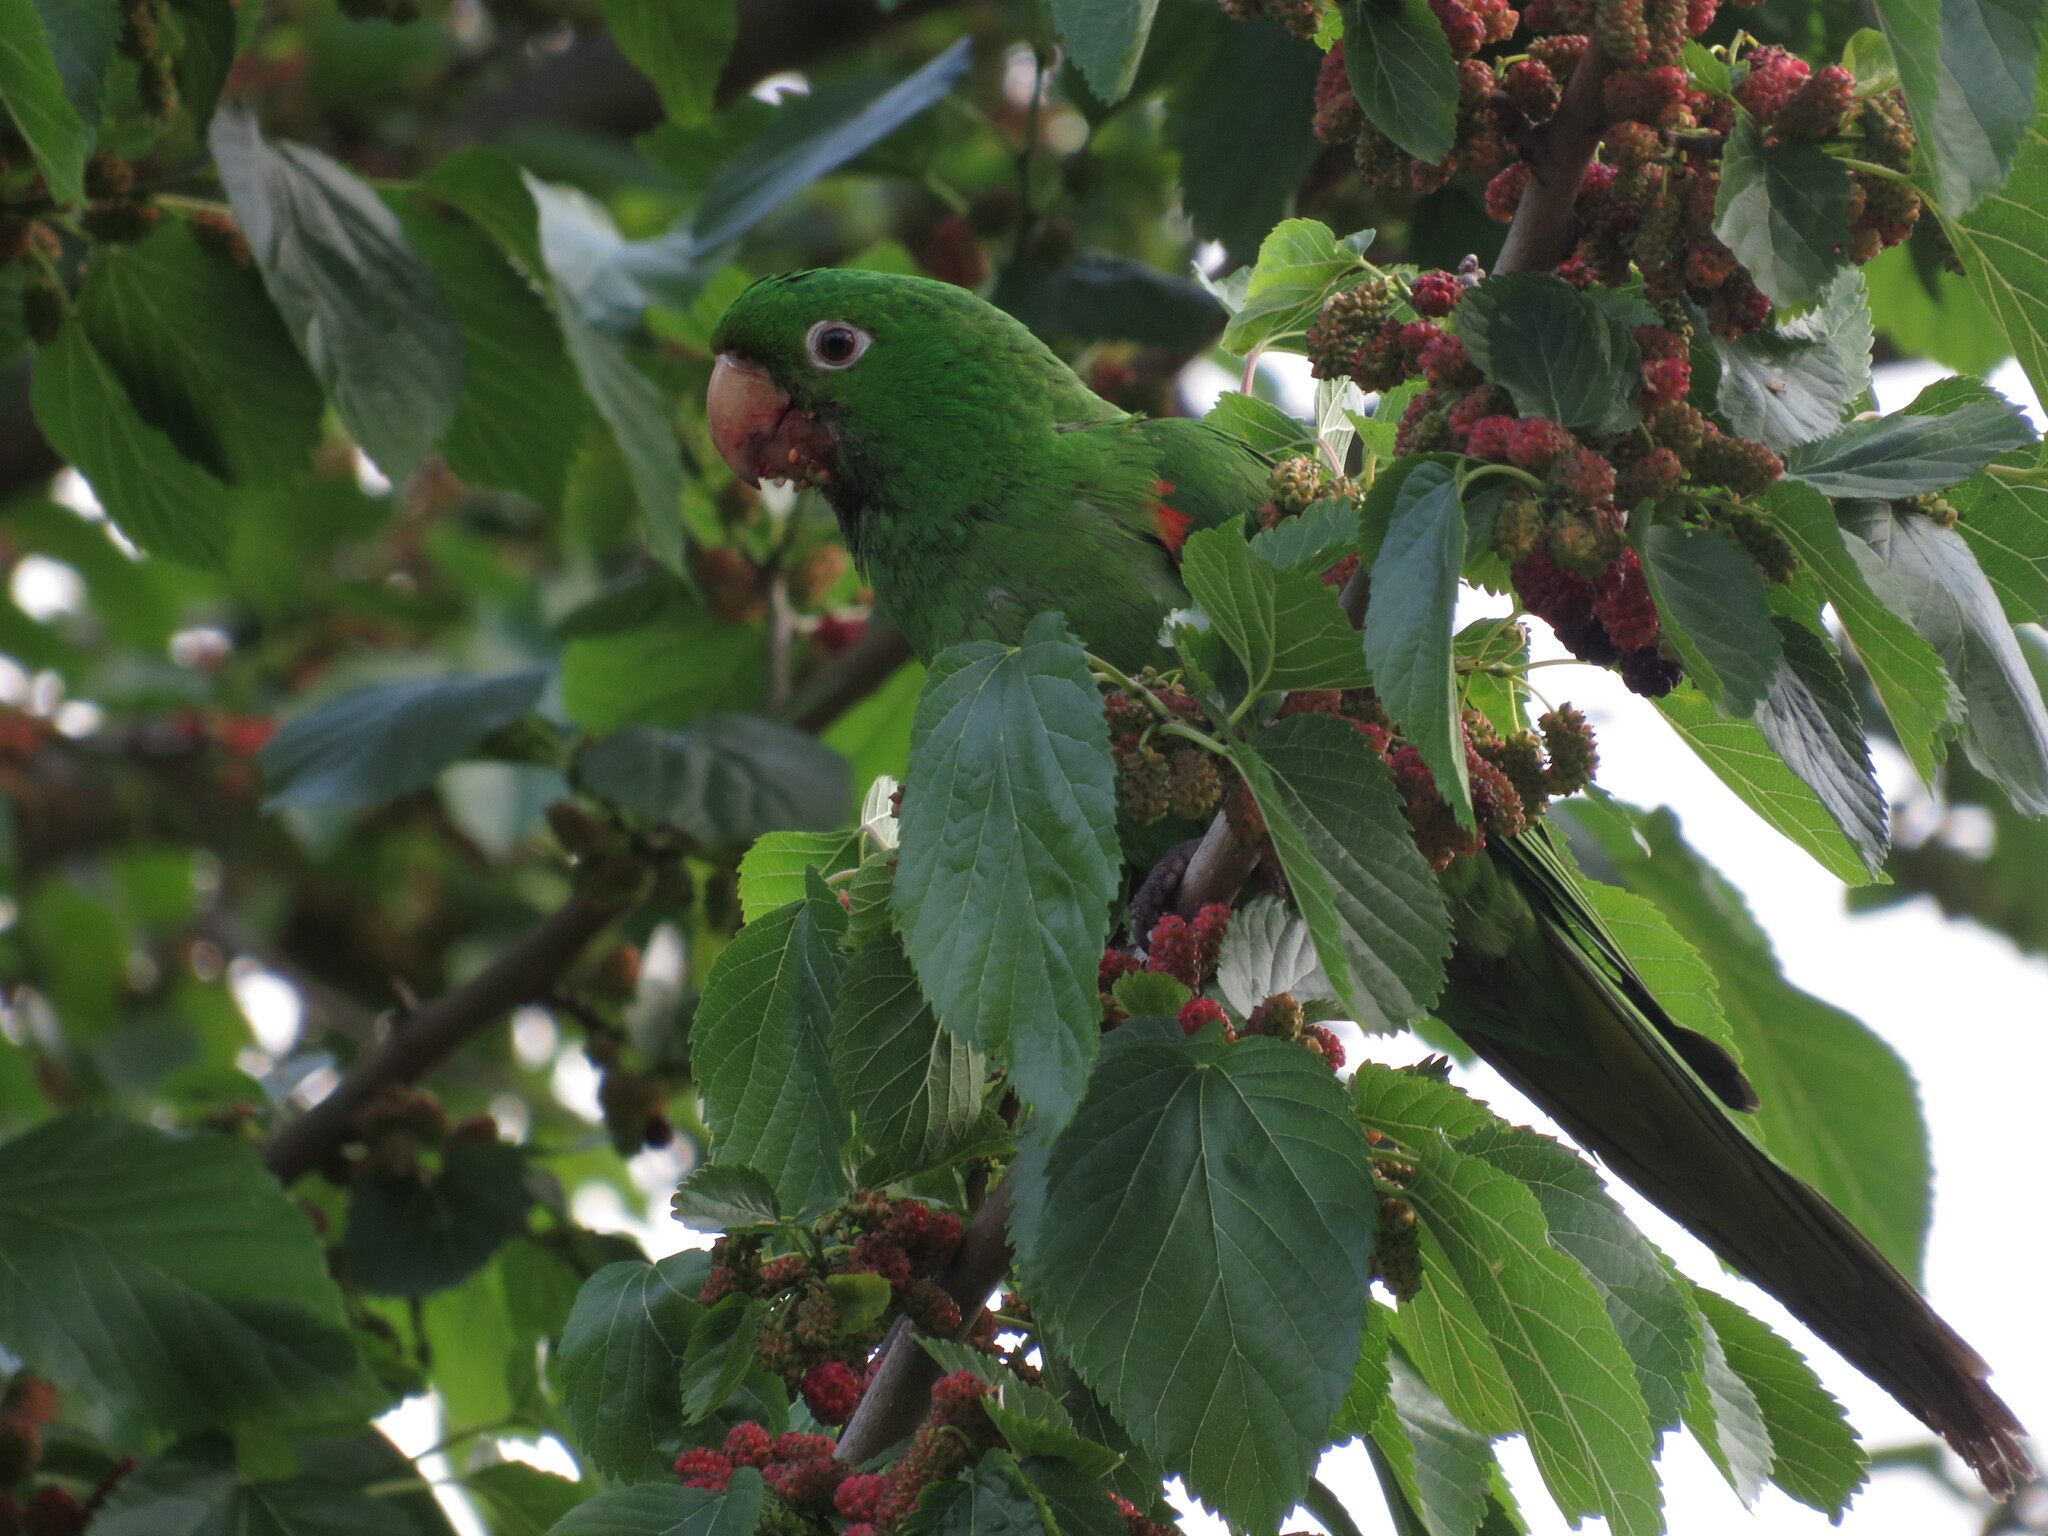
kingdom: Animalia
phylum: Chordata
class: Aves
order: Psittaciformes
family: Psittacidae
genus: Aratinga
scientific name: Aratinga leucophthalma
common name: White-eyed parakeet
